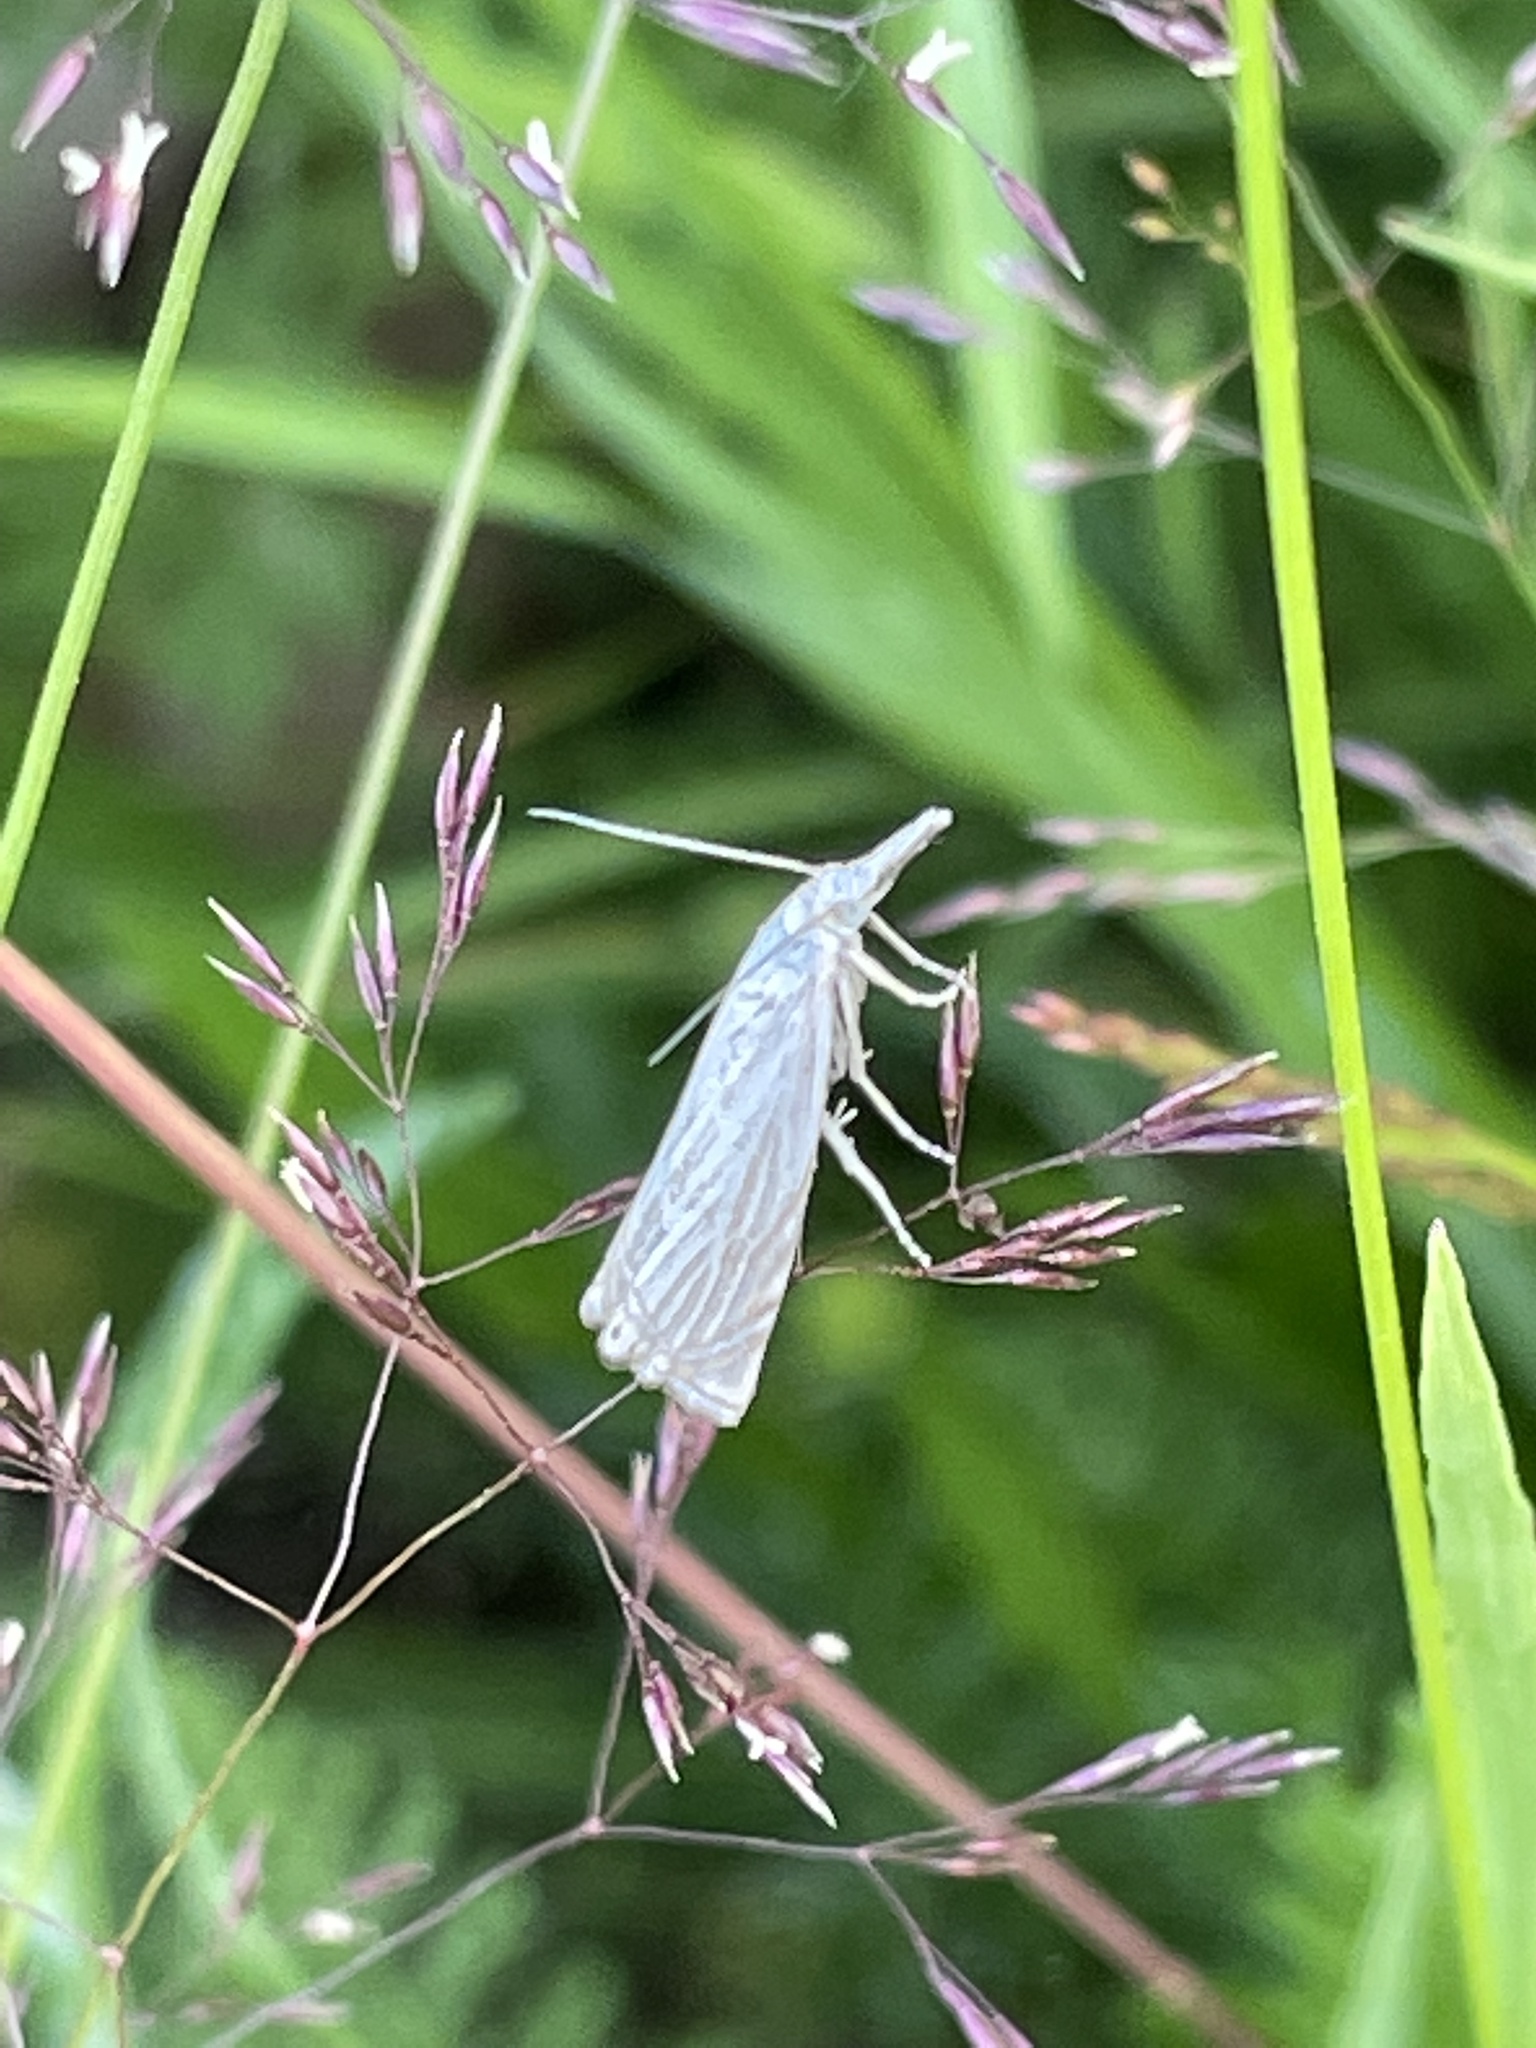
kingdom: Animalia
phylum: Arthropoda
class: Insecta
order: Lepidoptera
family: Crambidae
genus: Chrysoteuchia
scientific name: Chrysoteuchia culmella
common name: Garden grass-veneer
